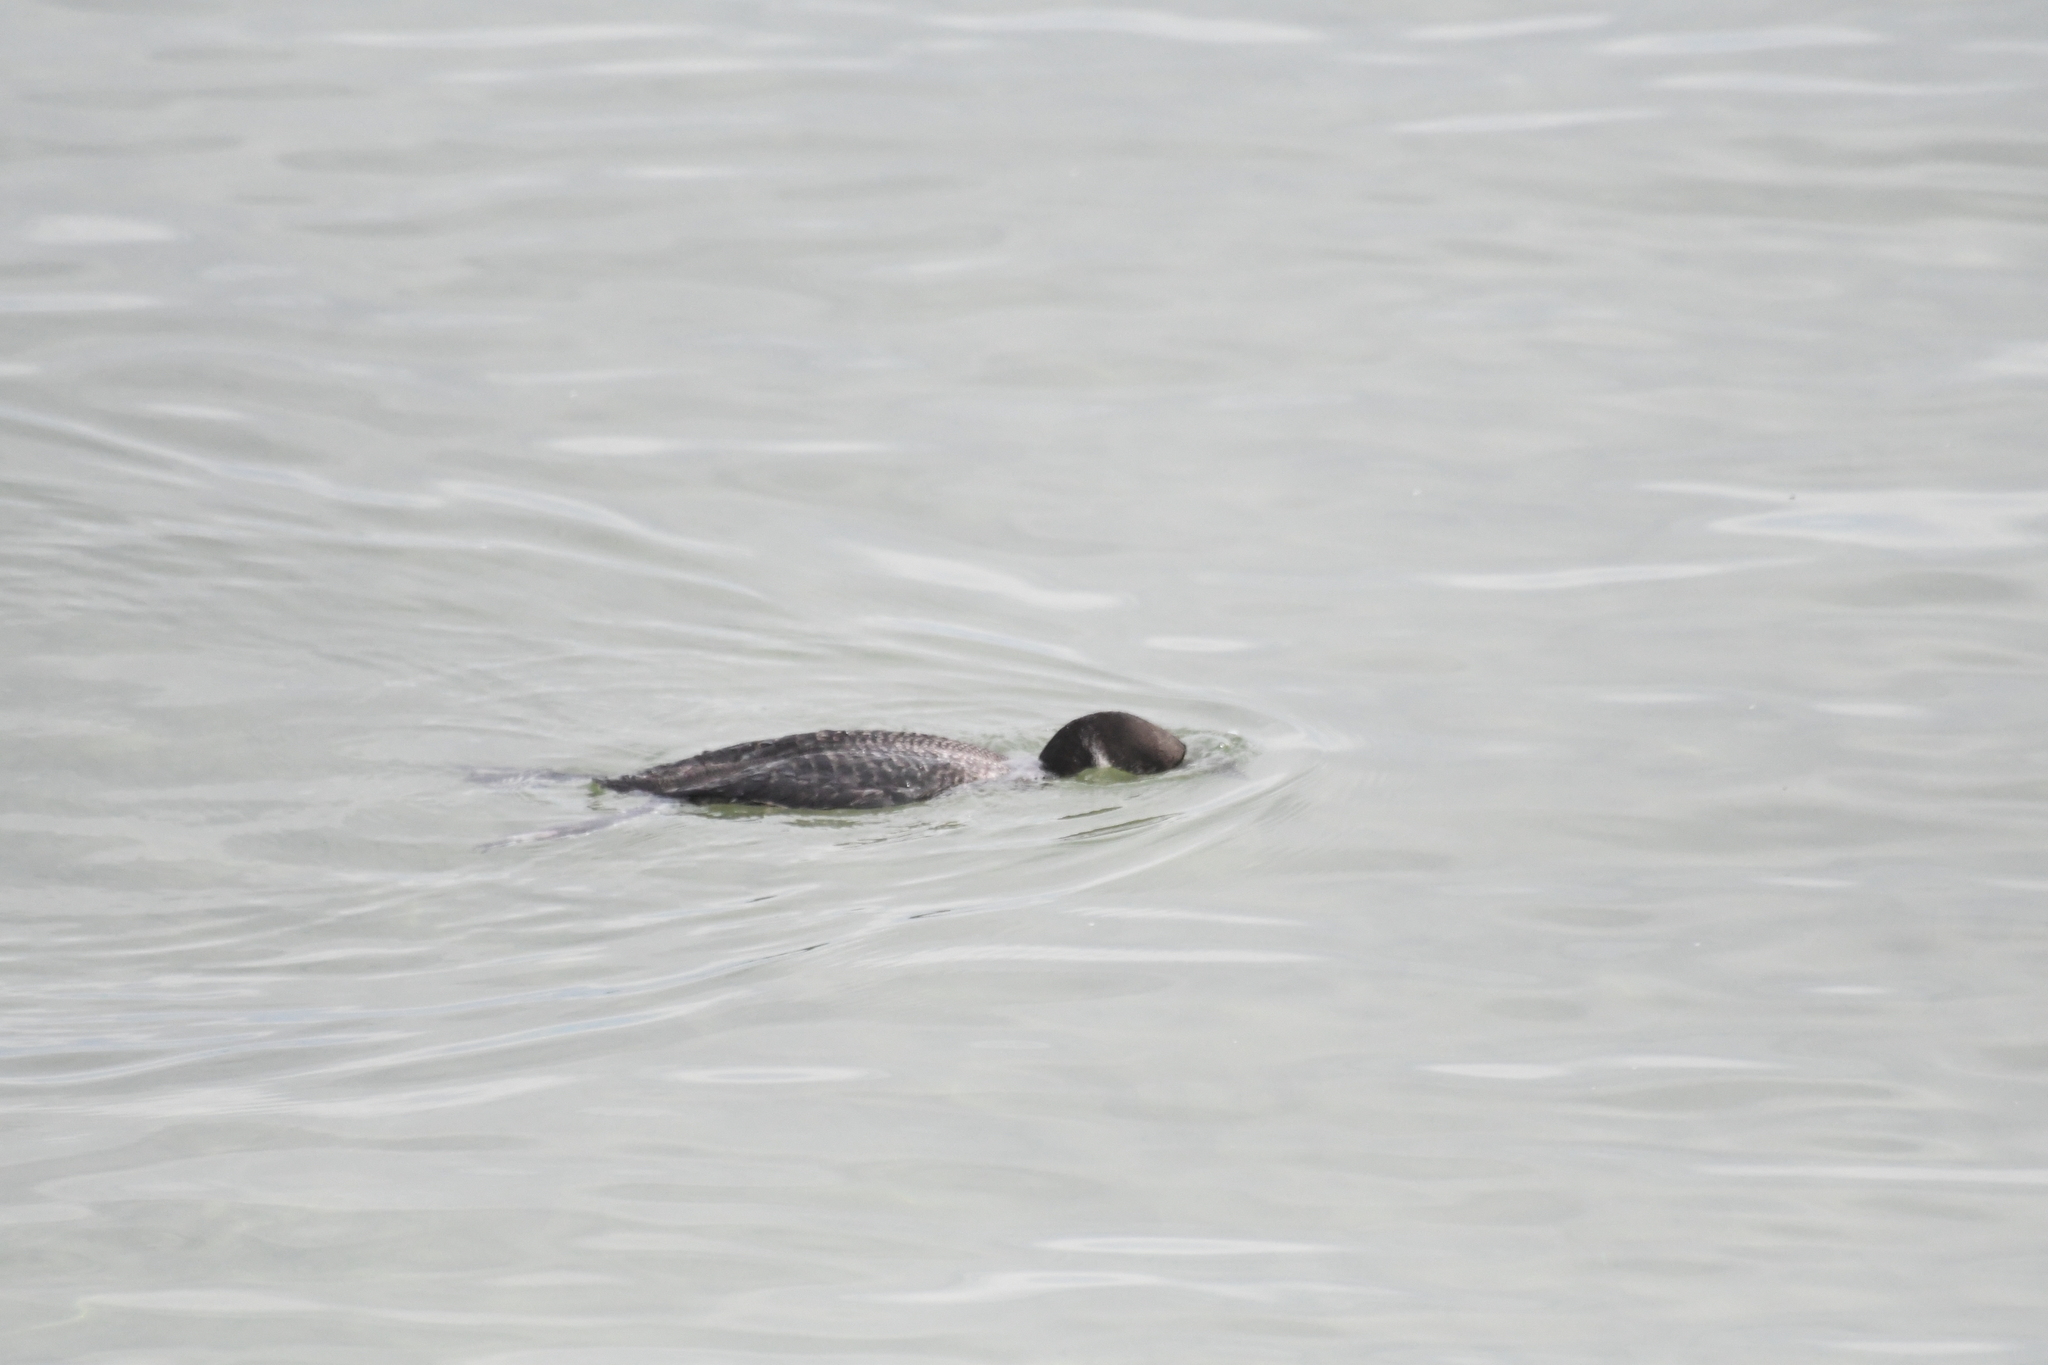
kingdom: Animalia
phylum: Chordata
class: Aves
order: Gaviiformes
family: Gaviidae
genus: Gavia
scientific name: Gavia immer
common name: Common loon
